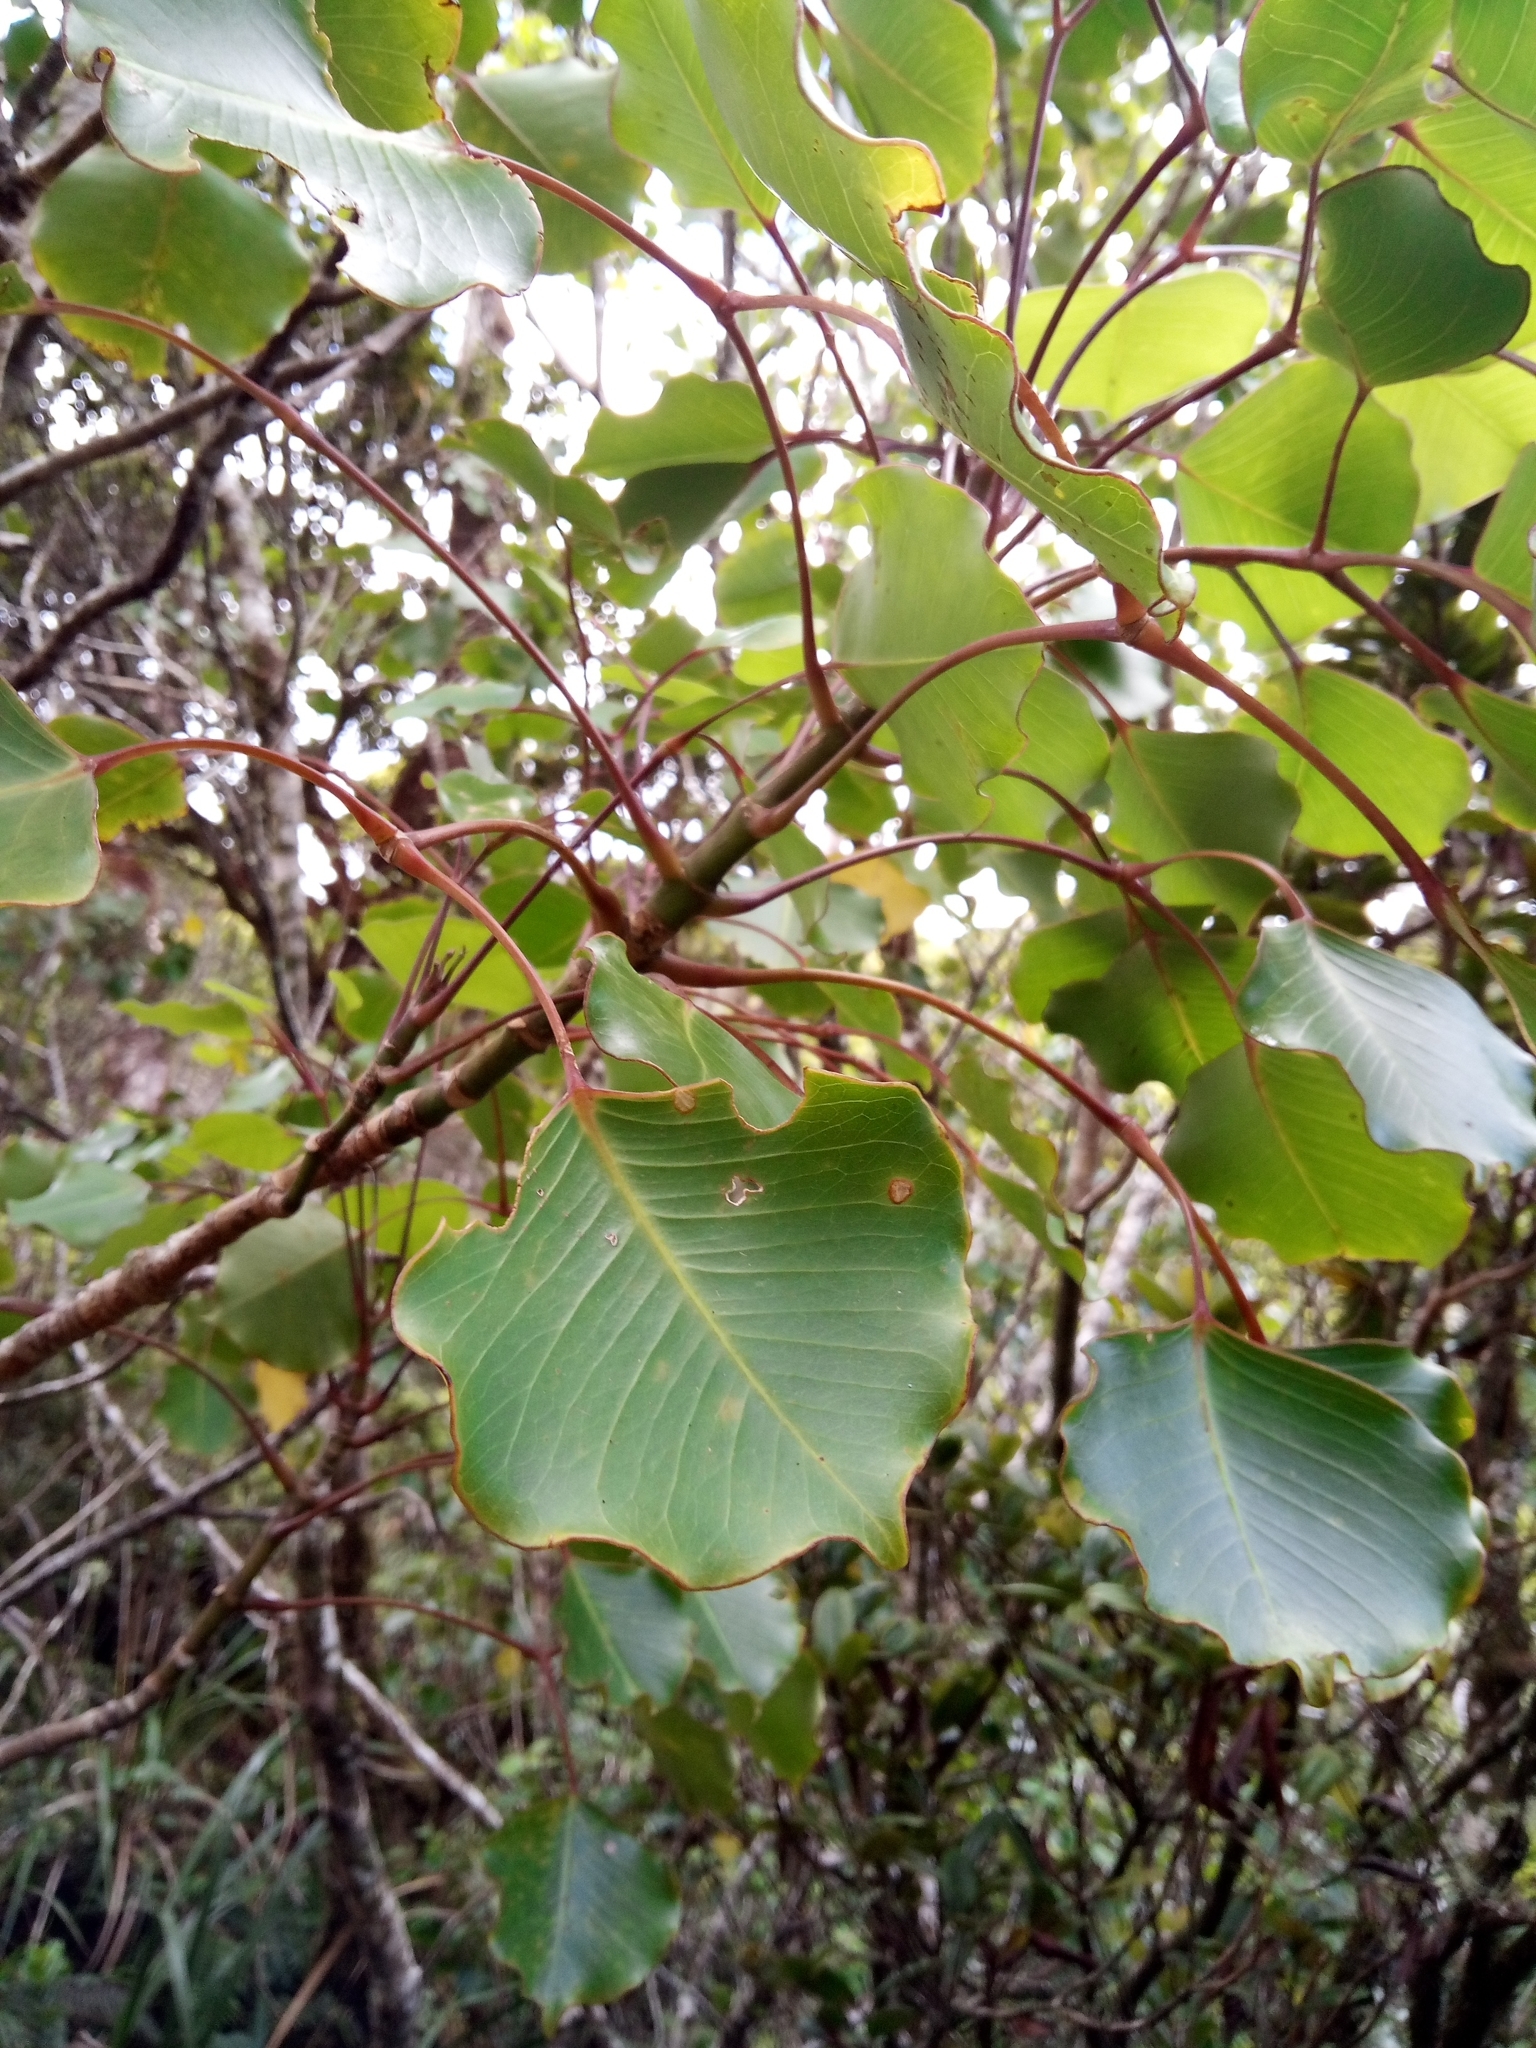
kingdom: Plantae
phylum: Tracheophyta
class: Magnoliopsida
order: Apiales
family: Araliaceae
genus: Cheirodendron
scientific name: Cheirodendron trigynum
